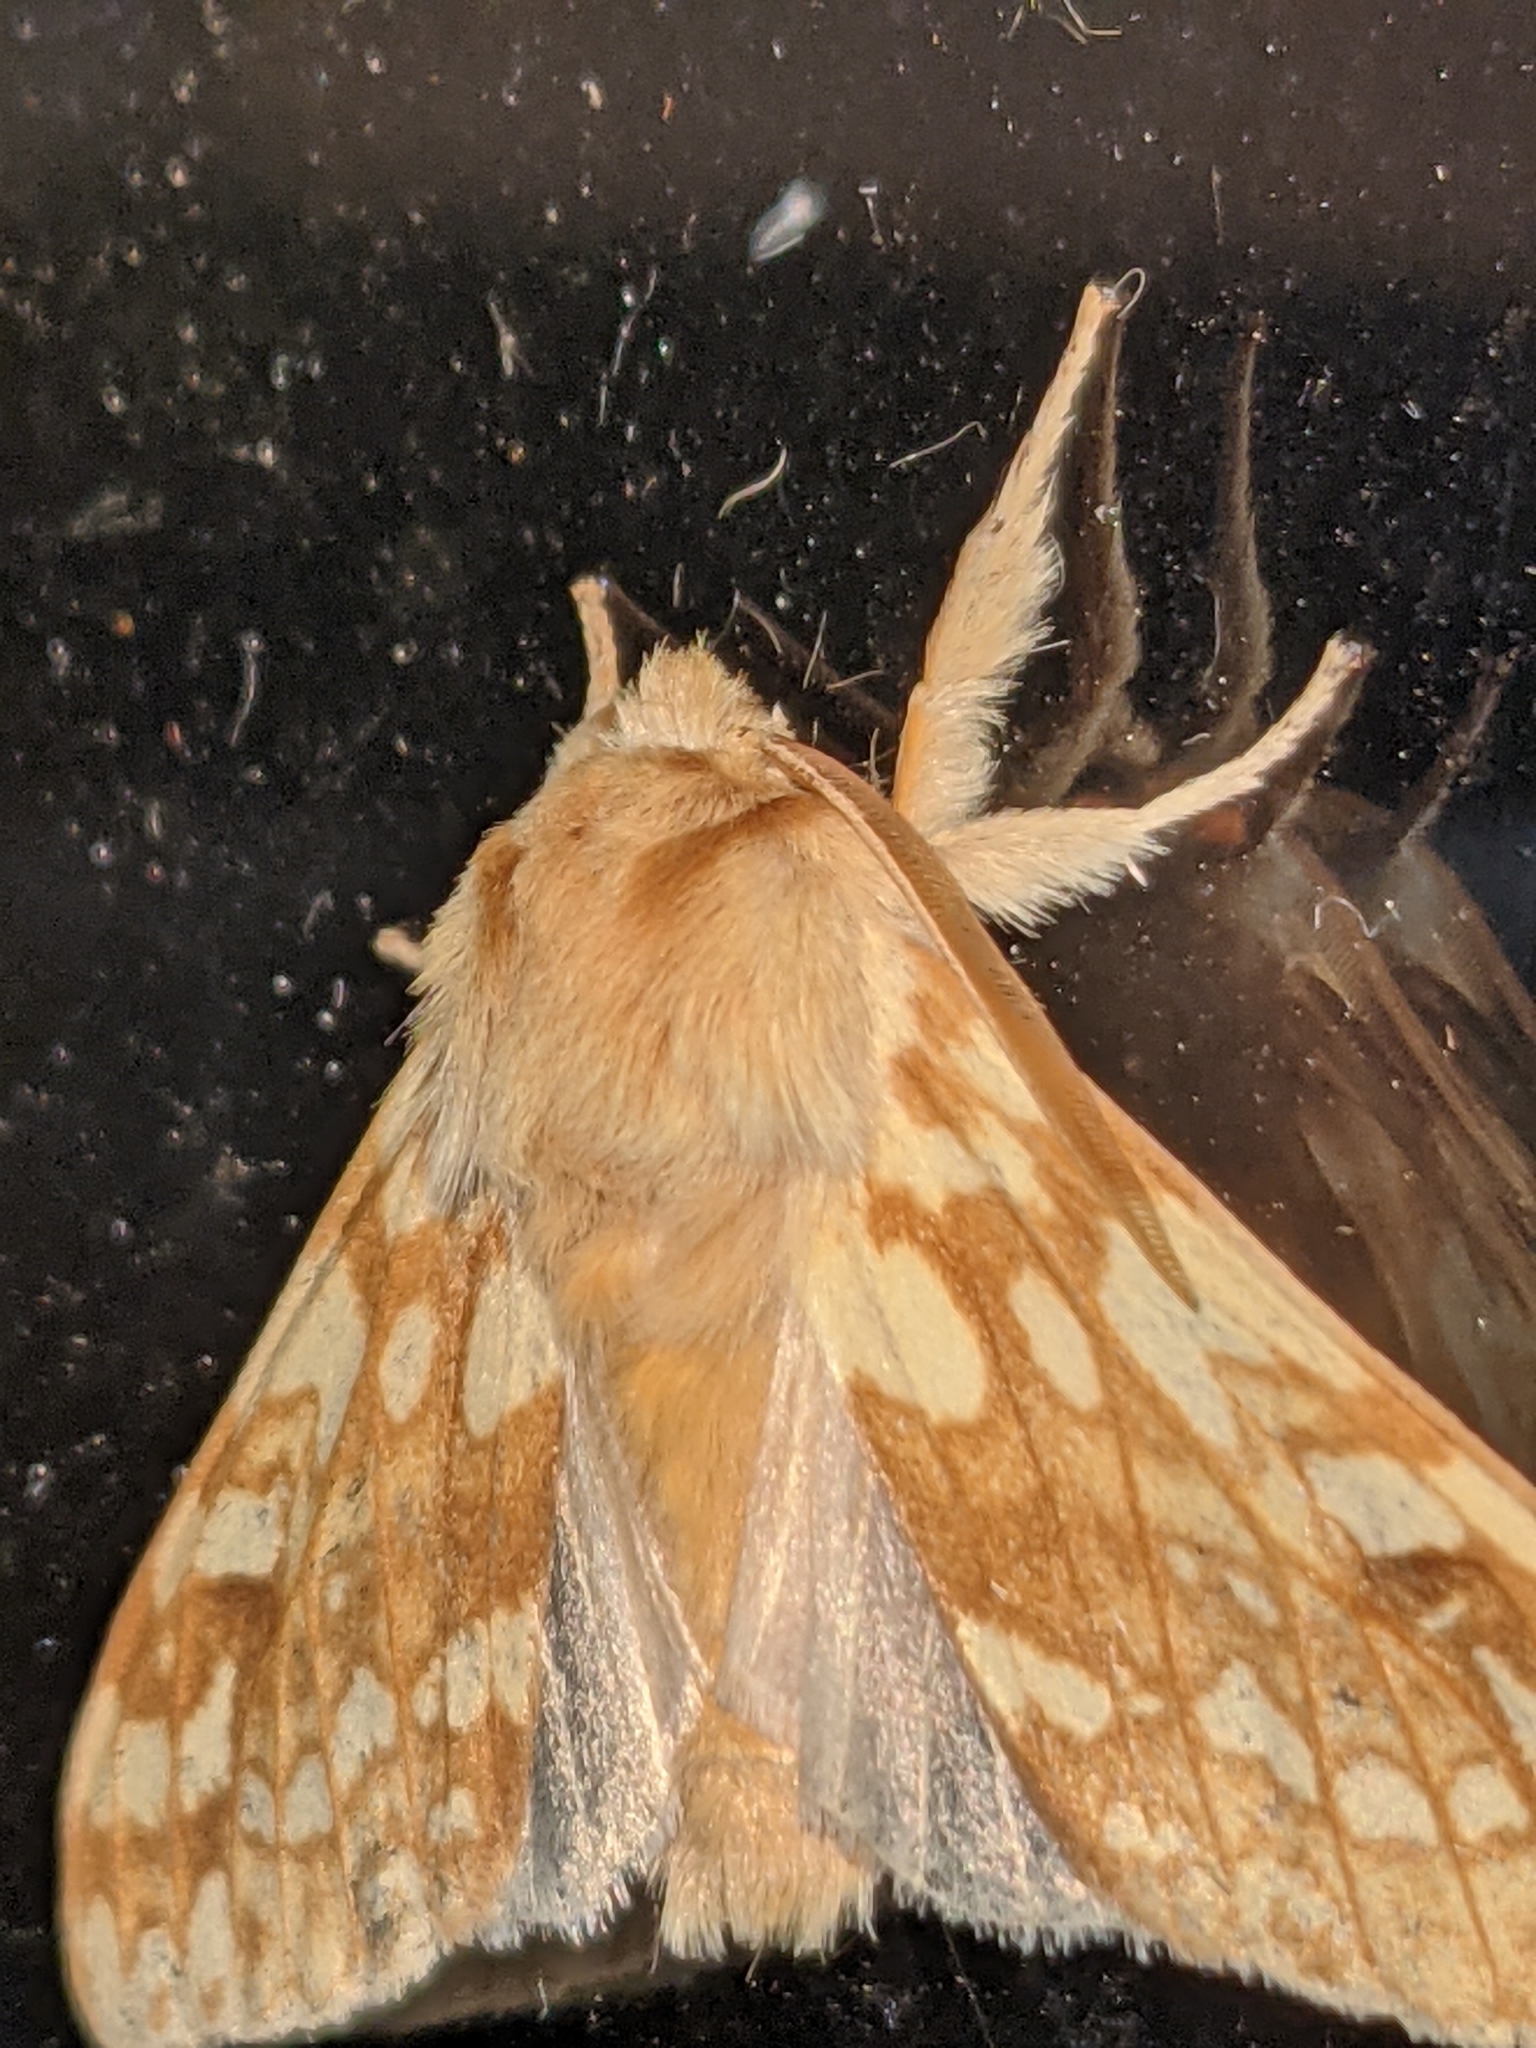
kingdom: Animalia
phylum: Arthropoda
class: Insecta
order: Lepidoptera
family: Erebidae
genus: Lophocampa
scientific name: Lophocampa maculata
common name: Spotted tussock moth
